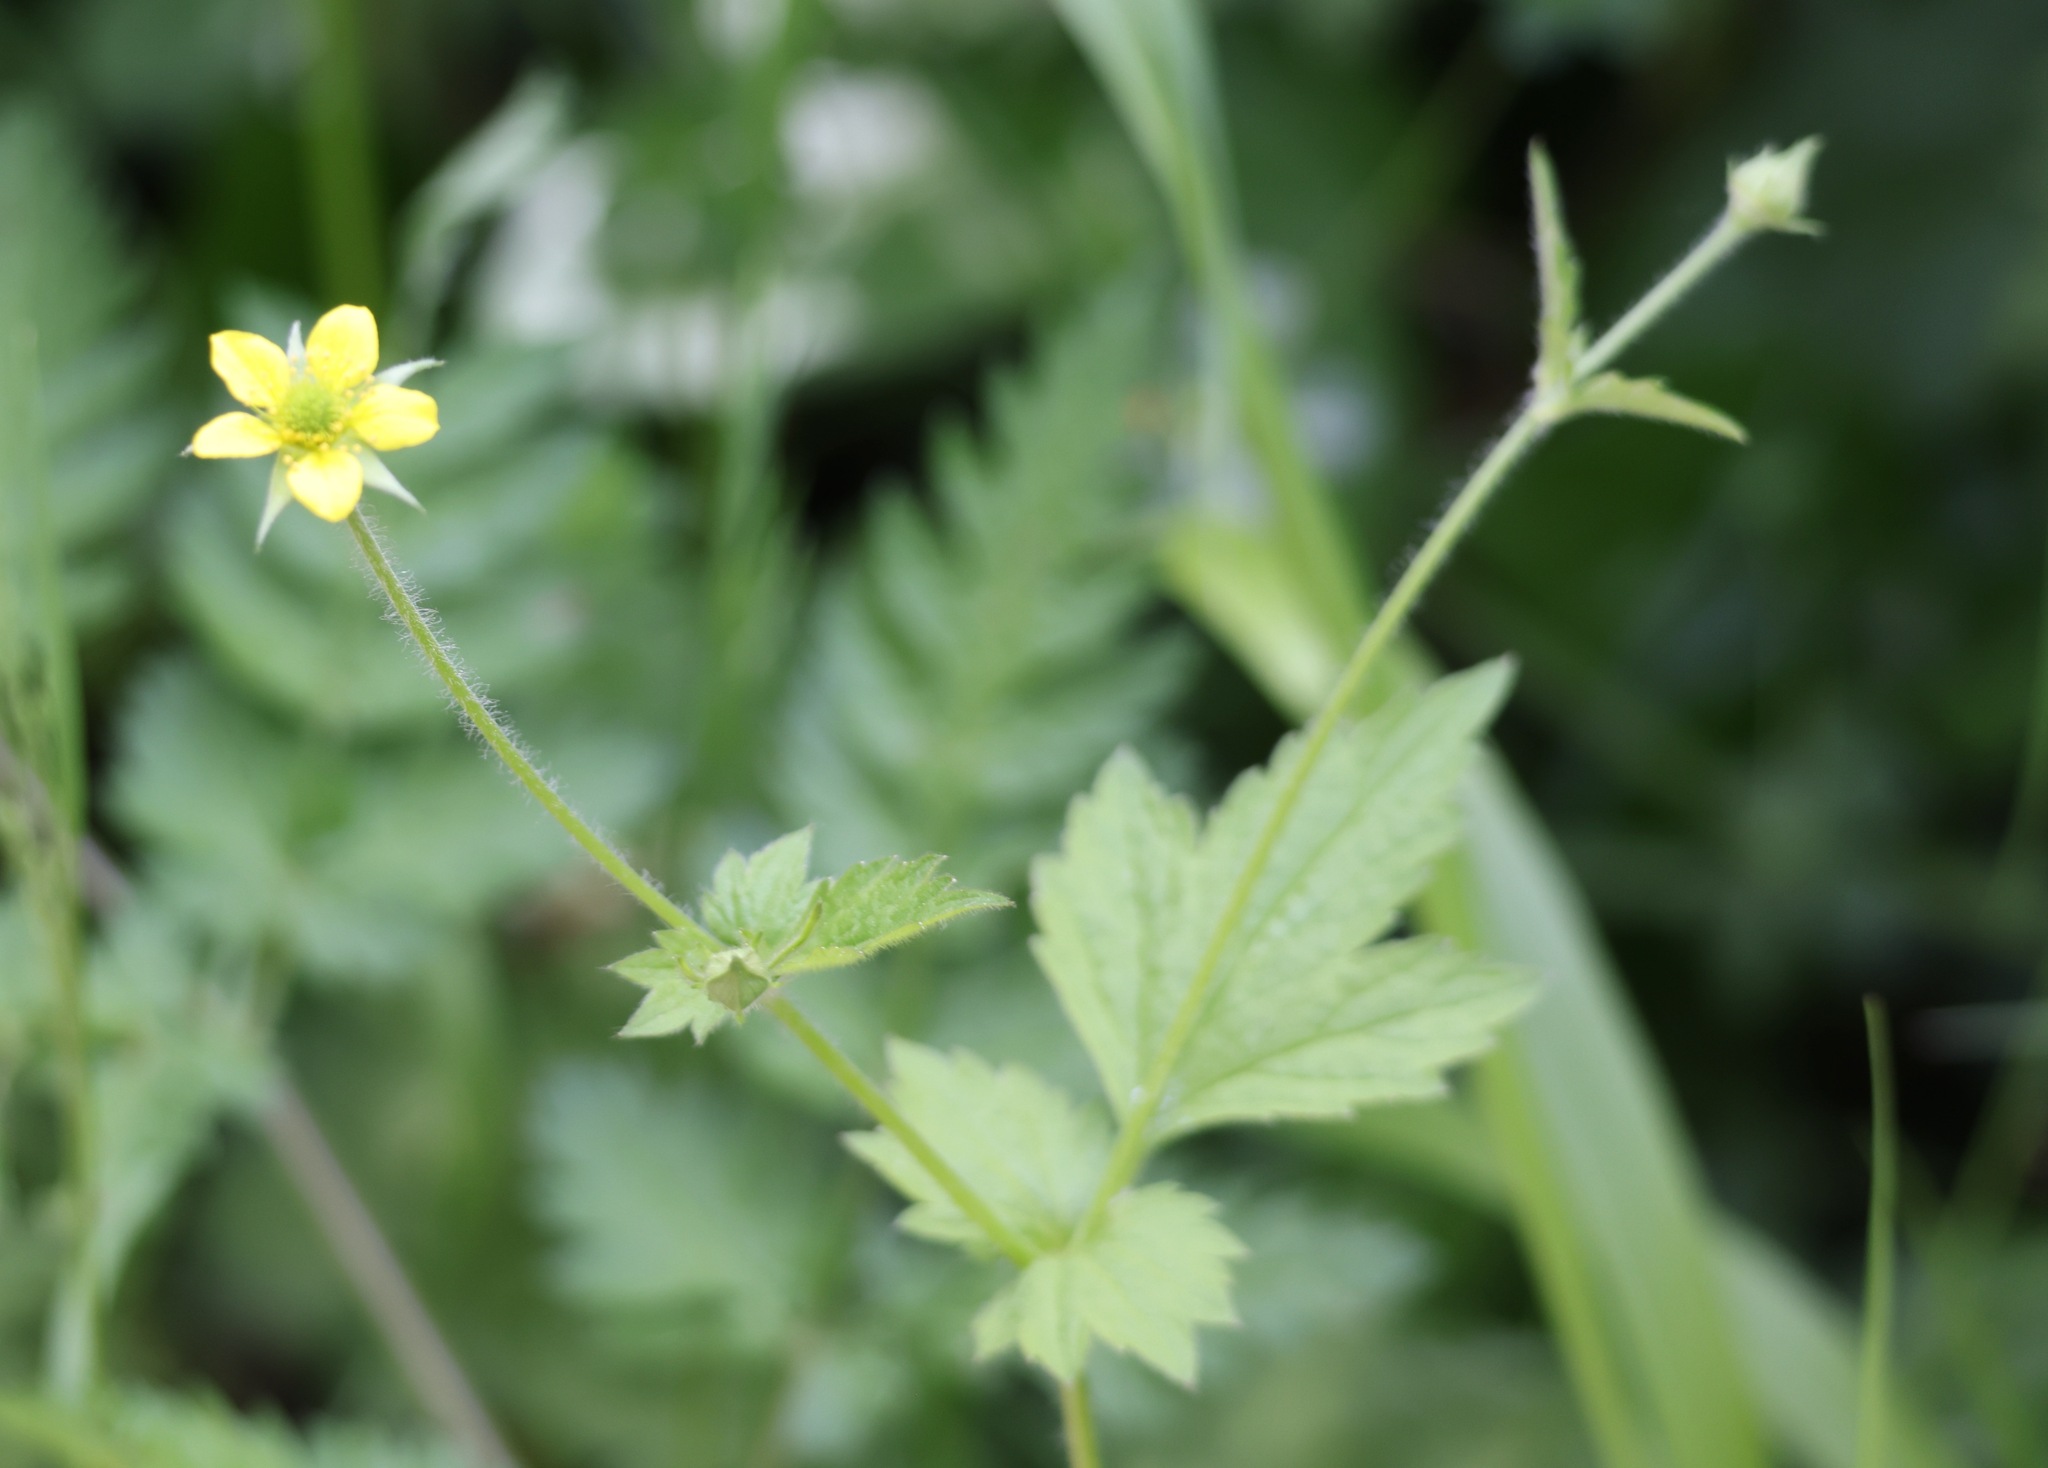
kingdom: Plantae
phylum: Tracheophyta
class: Magnoliopsida
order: Rosales
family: Rosaceae
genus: Geum
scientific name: Geum urbanum
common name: Wood avens
